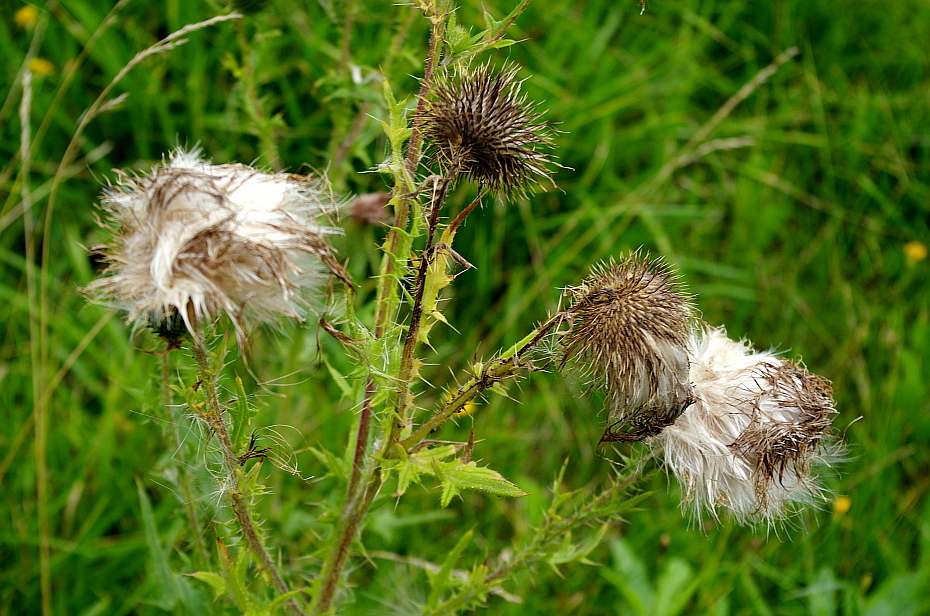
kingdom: Plantae
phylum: Tracheophyta
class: Magnoliopsida
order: Asterales
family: Asteraceae
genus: Cirsium
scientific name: Cirsium vulgare
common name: Bull thistle
